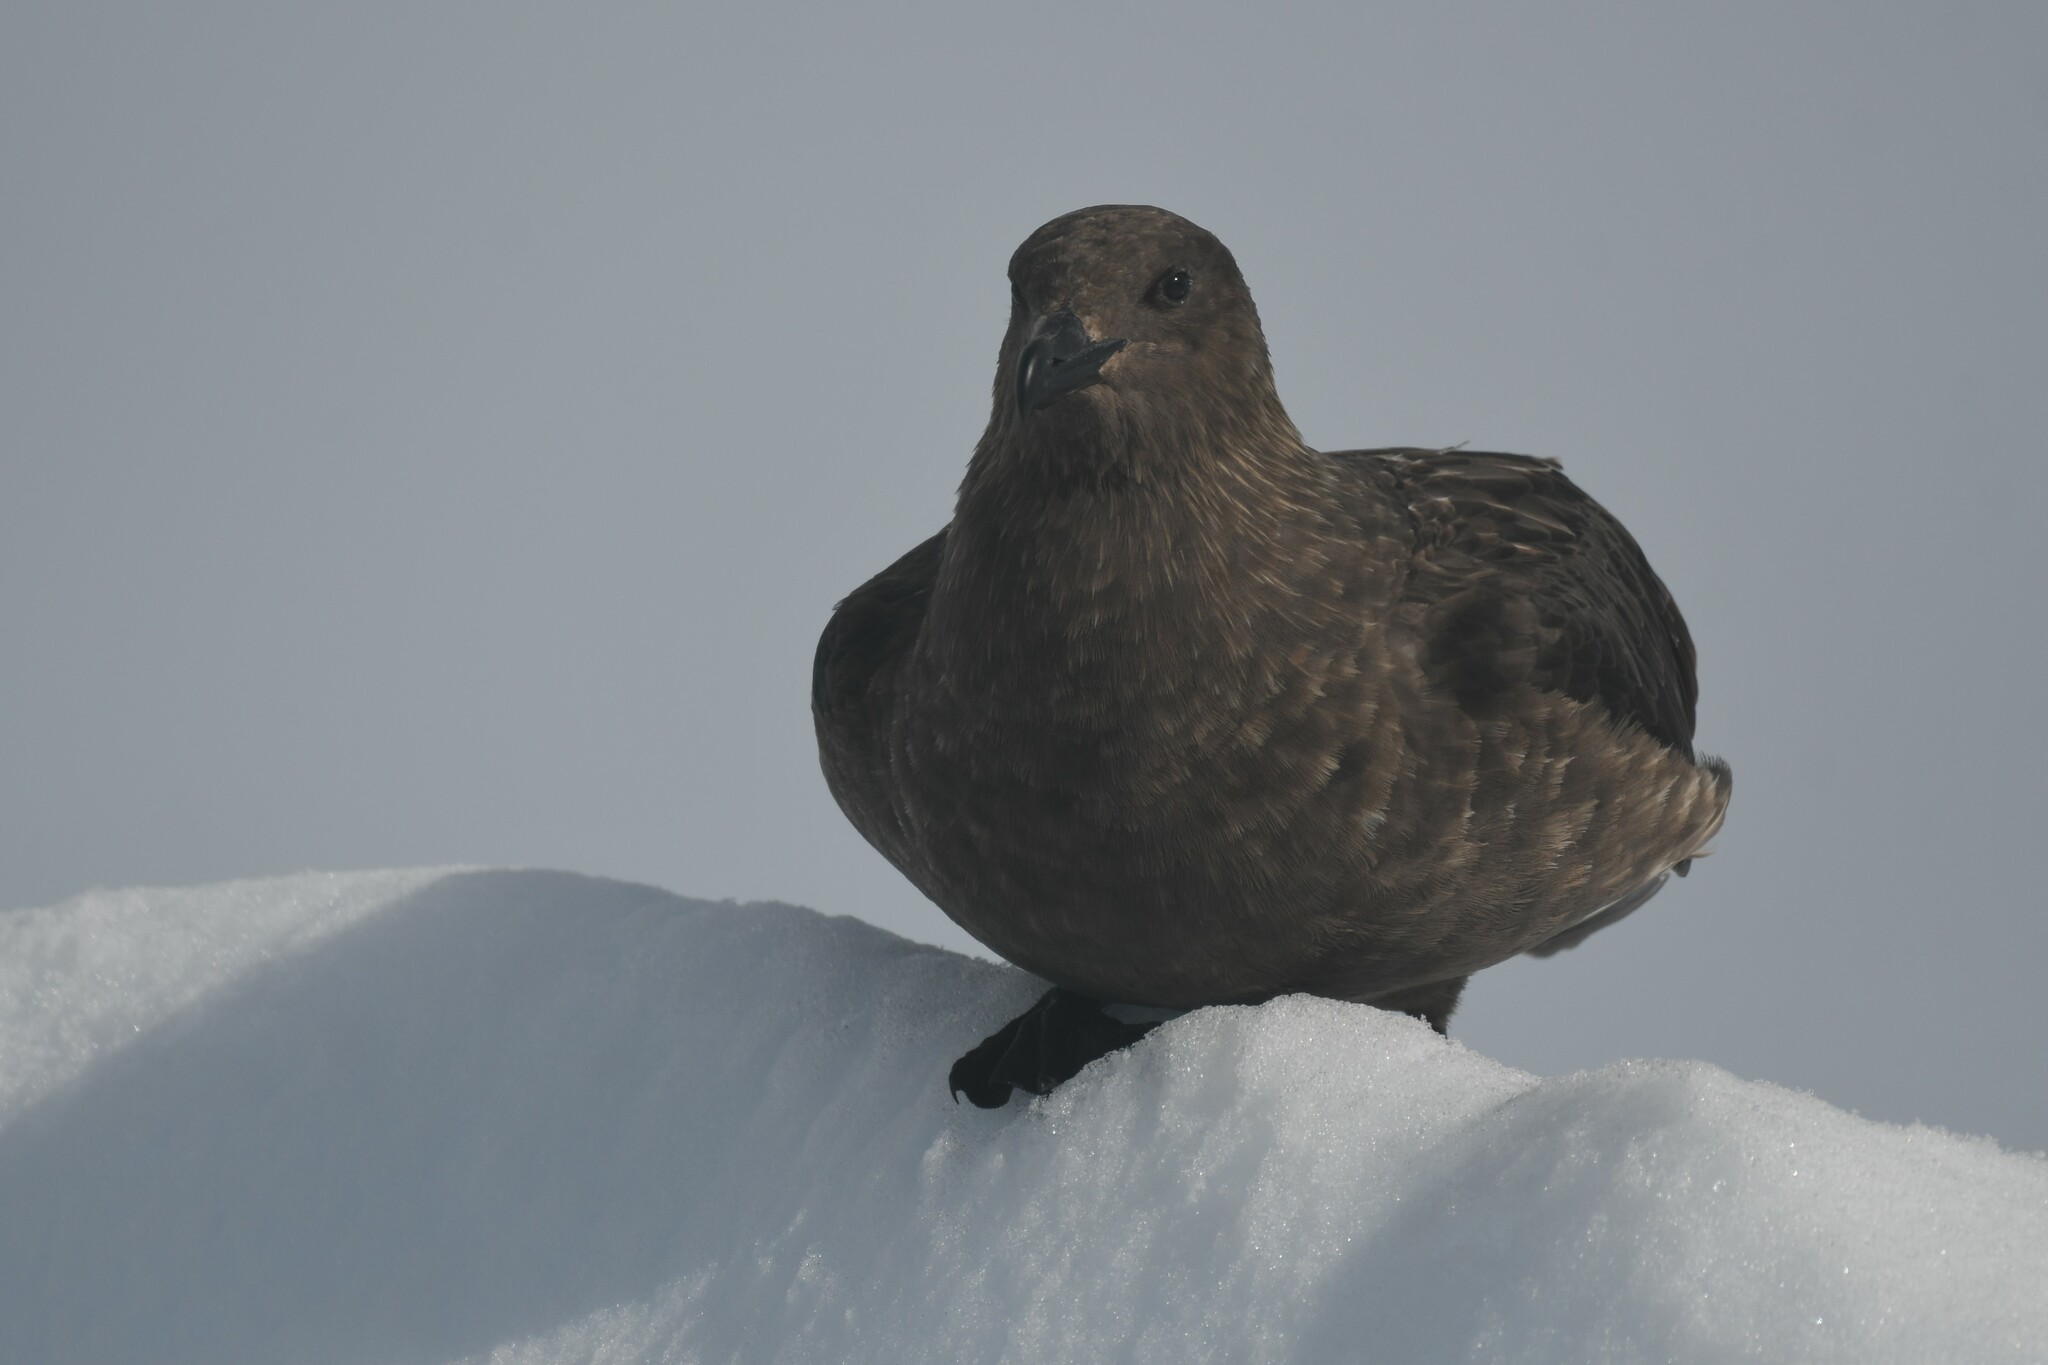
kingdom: Animalia
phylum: Chordata
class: Aves
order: Charadriiformes
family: Stercorariidae
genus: Stercorarius
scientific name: Stercorarius maccormicki
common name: South polar skua
